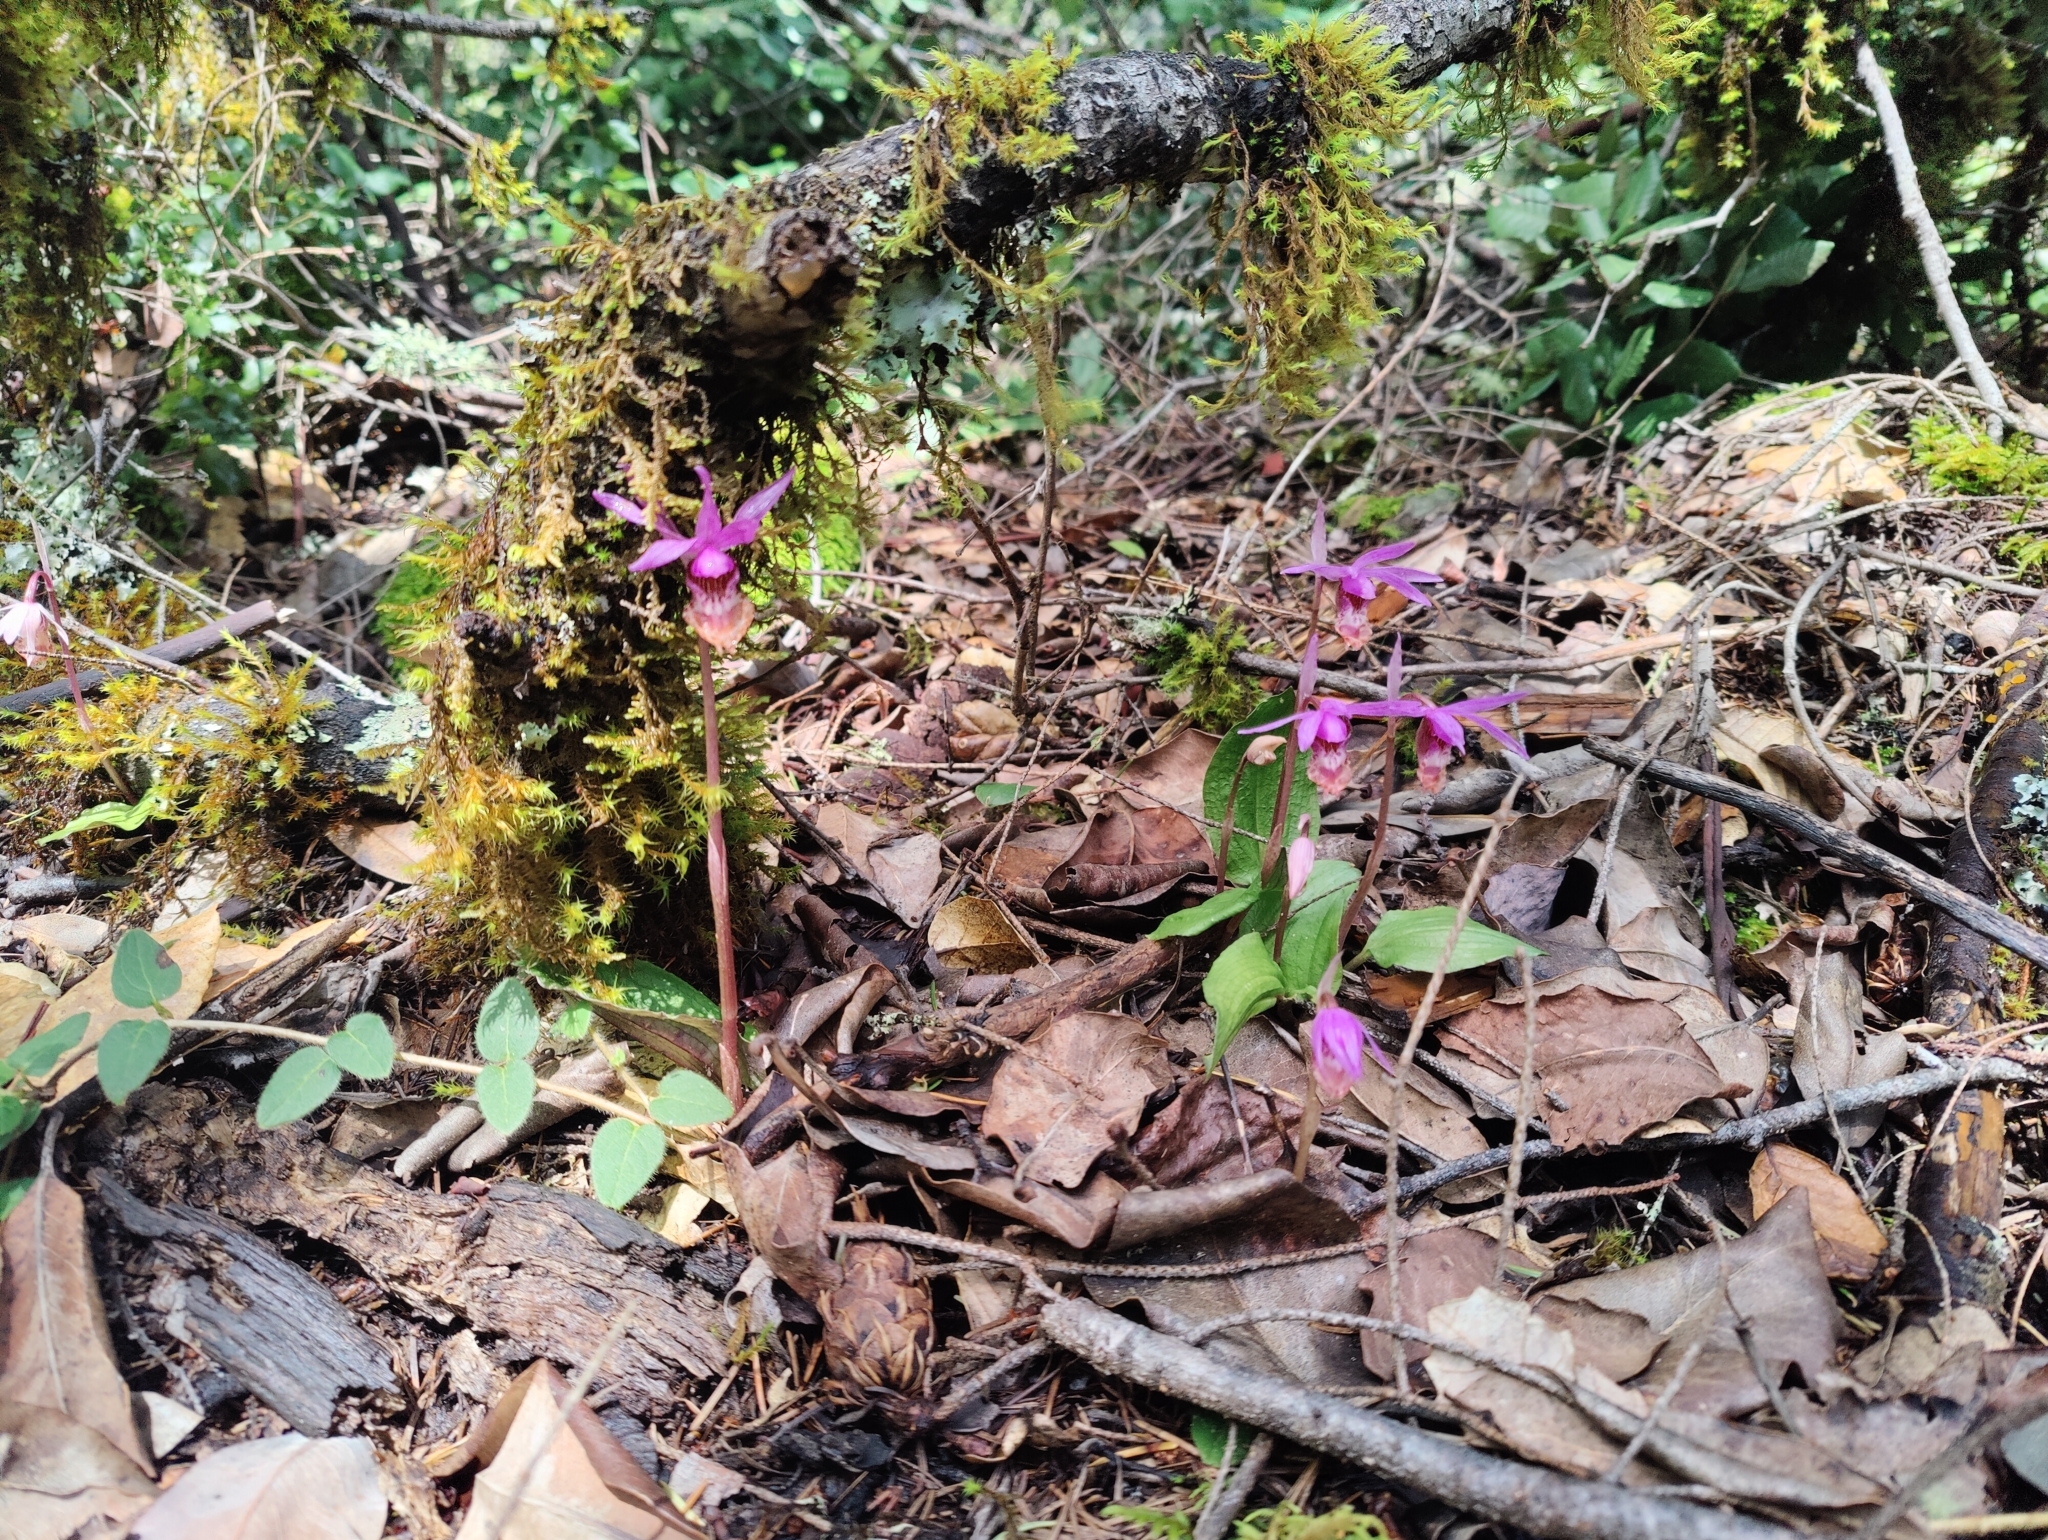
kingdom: Plantae
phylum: Tracheophyta
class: Liliopsida
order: Asparagales
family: Orchidaceae
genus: Calypso
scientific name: Calypso bulbosa
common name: Calypso
